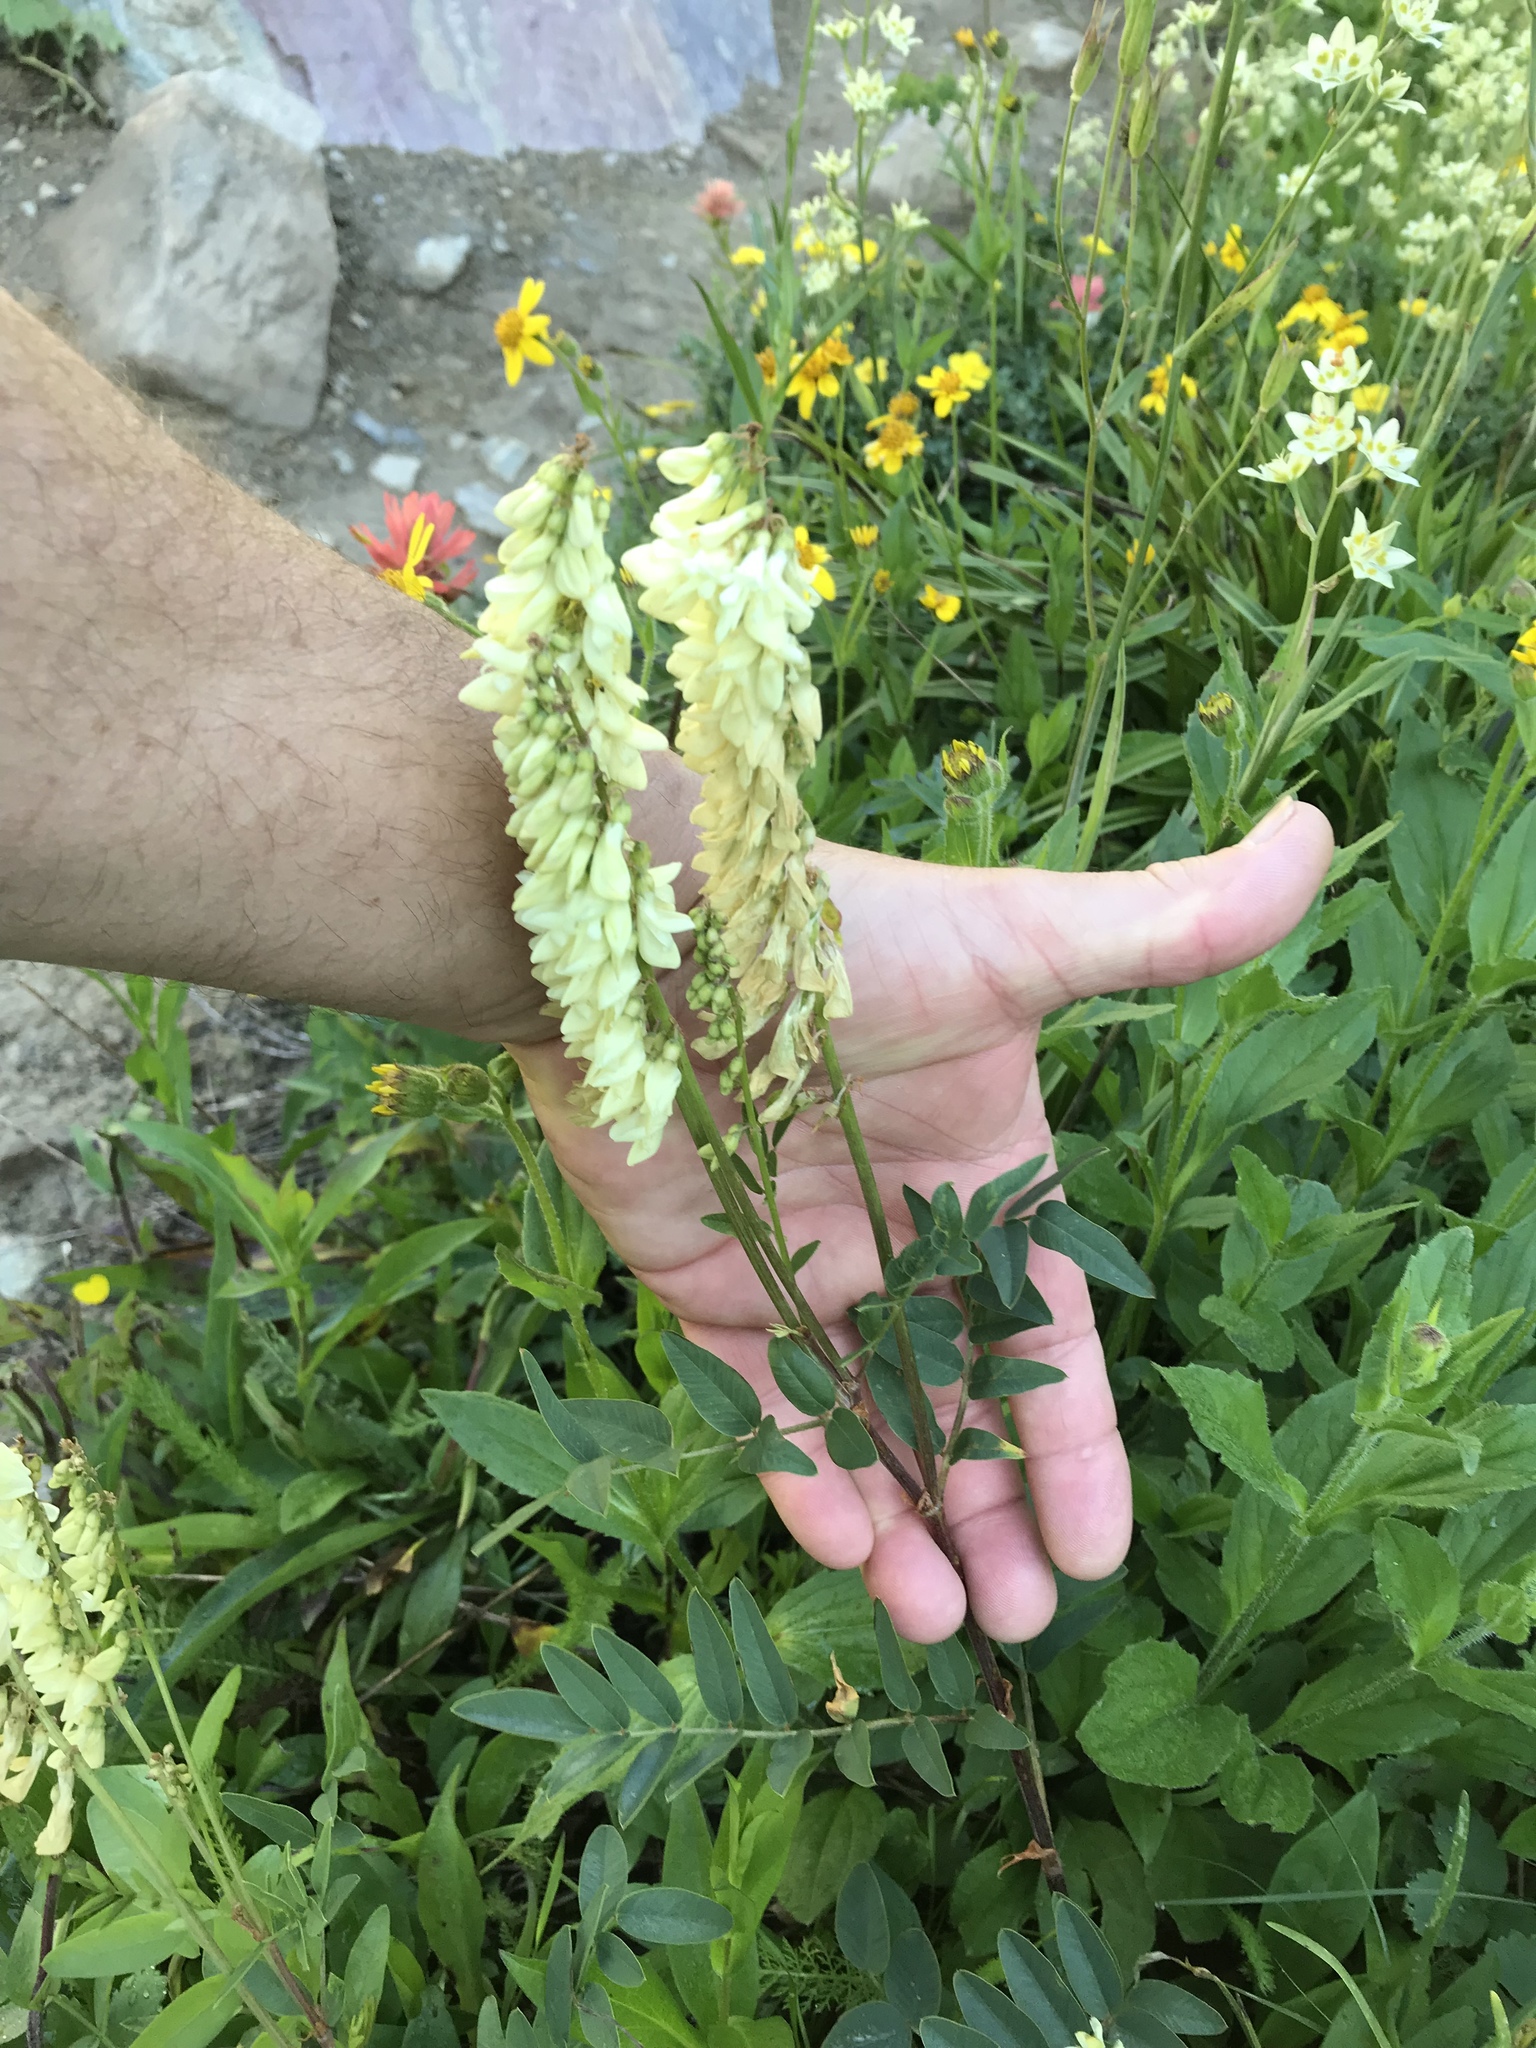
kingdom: Plantae
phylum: Tracheophyta
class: Magnoliopsida
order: Fabales
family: Fabaceae
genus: Hedysarum
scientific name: Hedysarum sulphurescens
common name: Sulphur hedysarum
